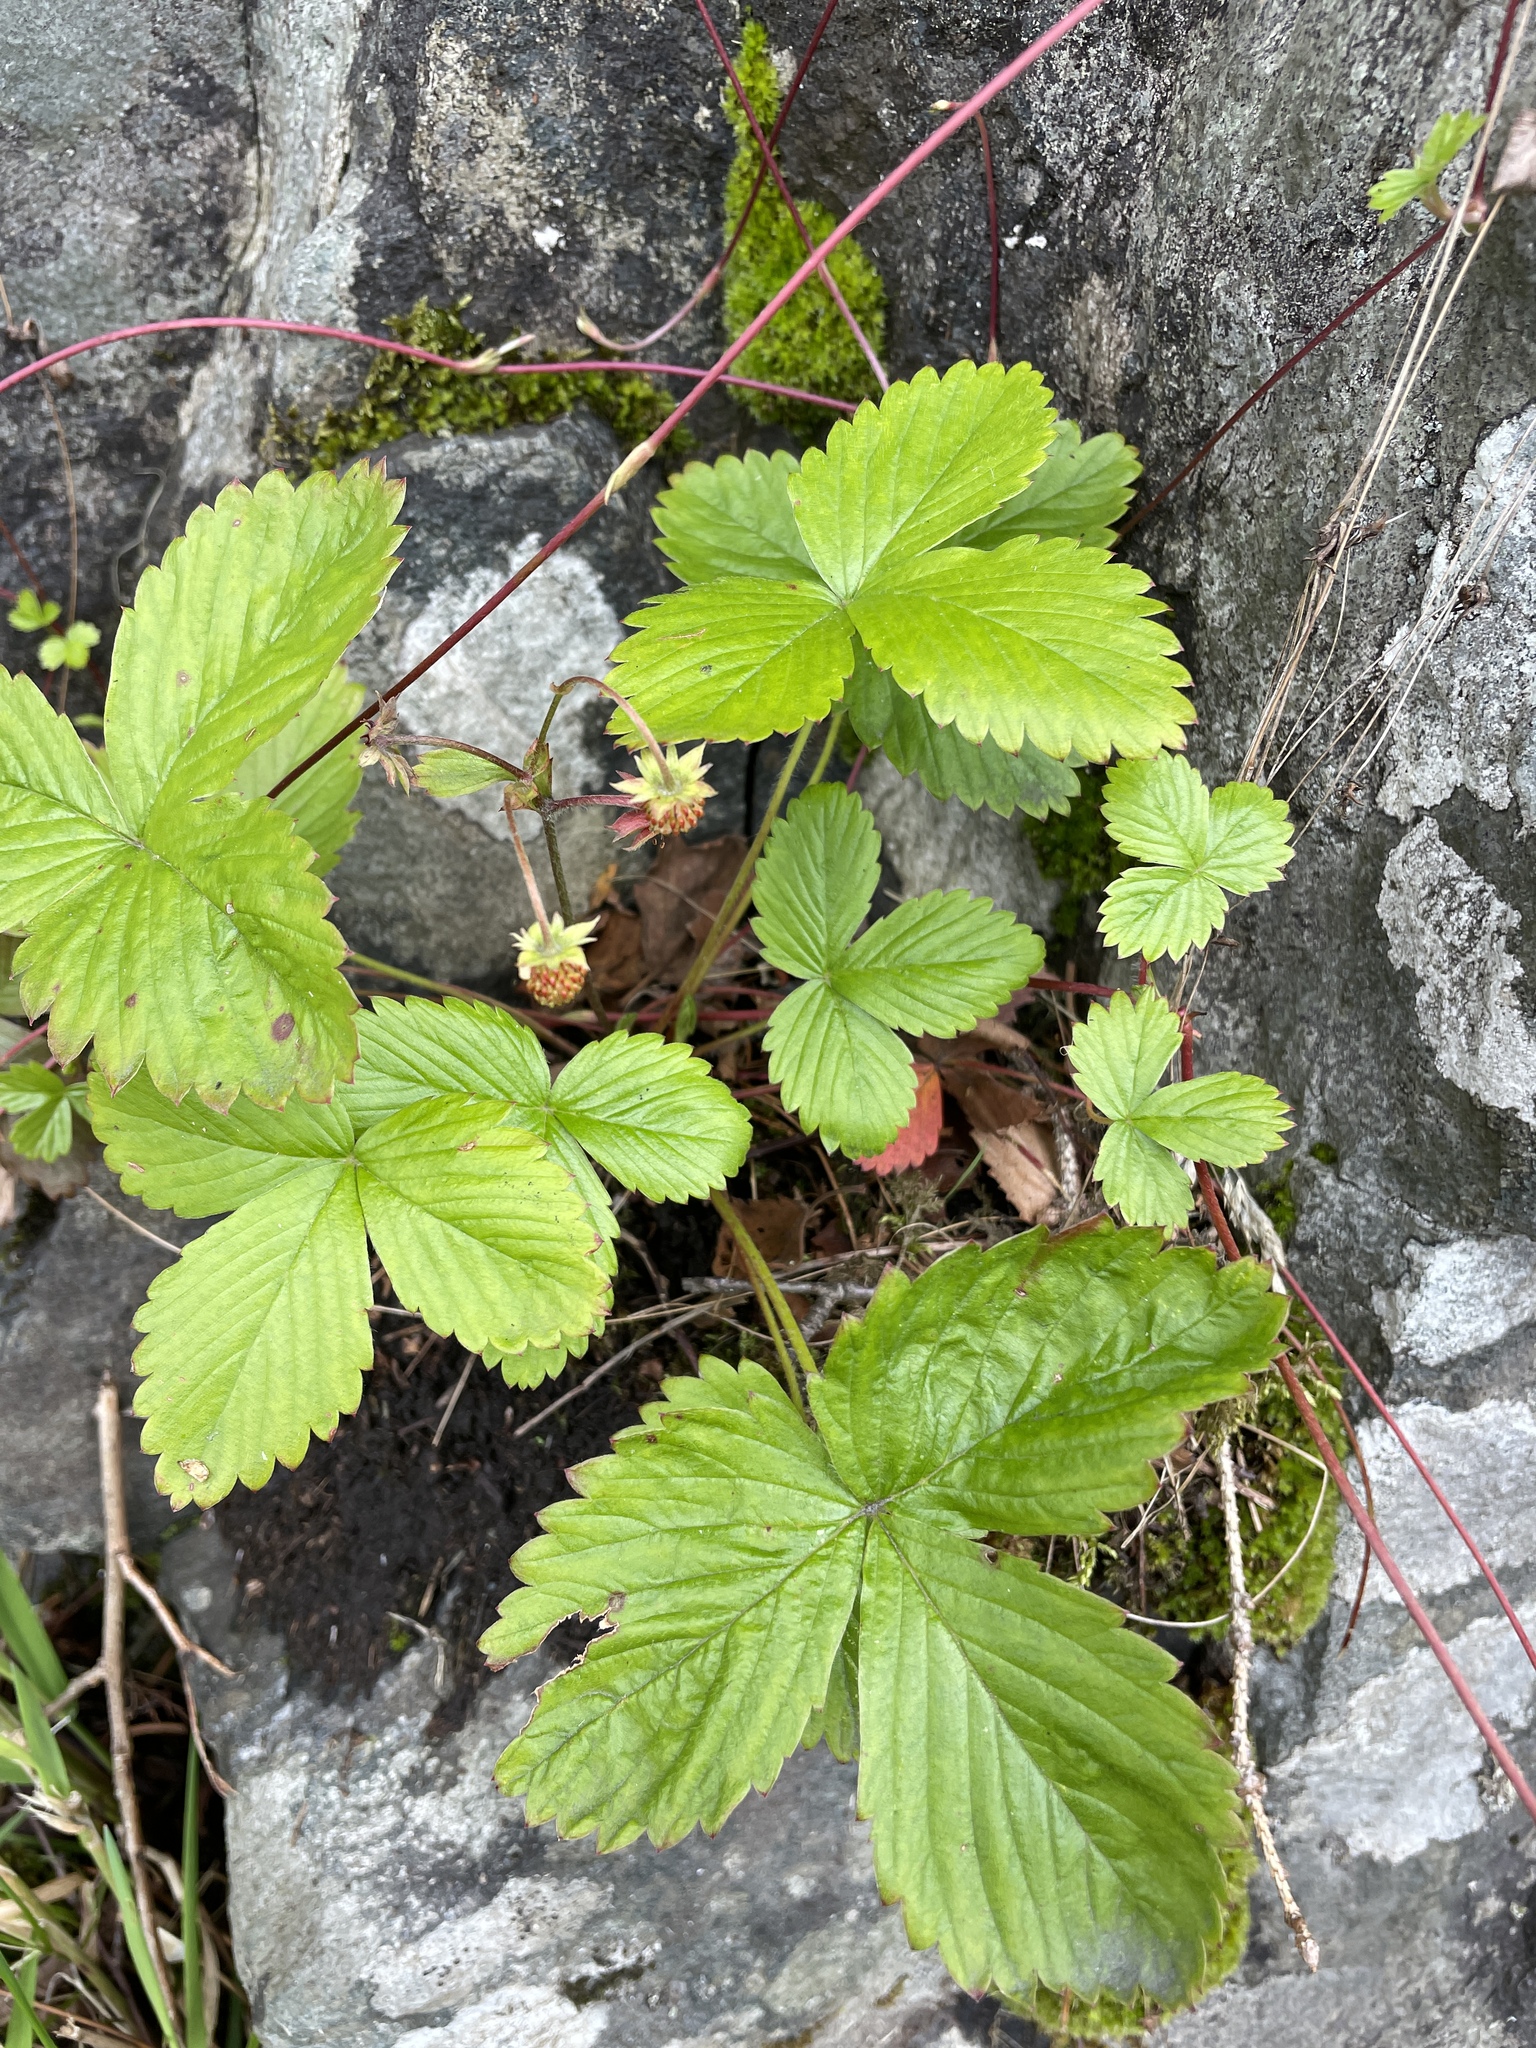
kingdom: Plantae
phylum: Tracheophyta
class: Magnoliopsida
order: Rosales
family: Rosaceae
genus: Fragaria
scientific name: Fragaria vesca
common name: Wild strawberry
